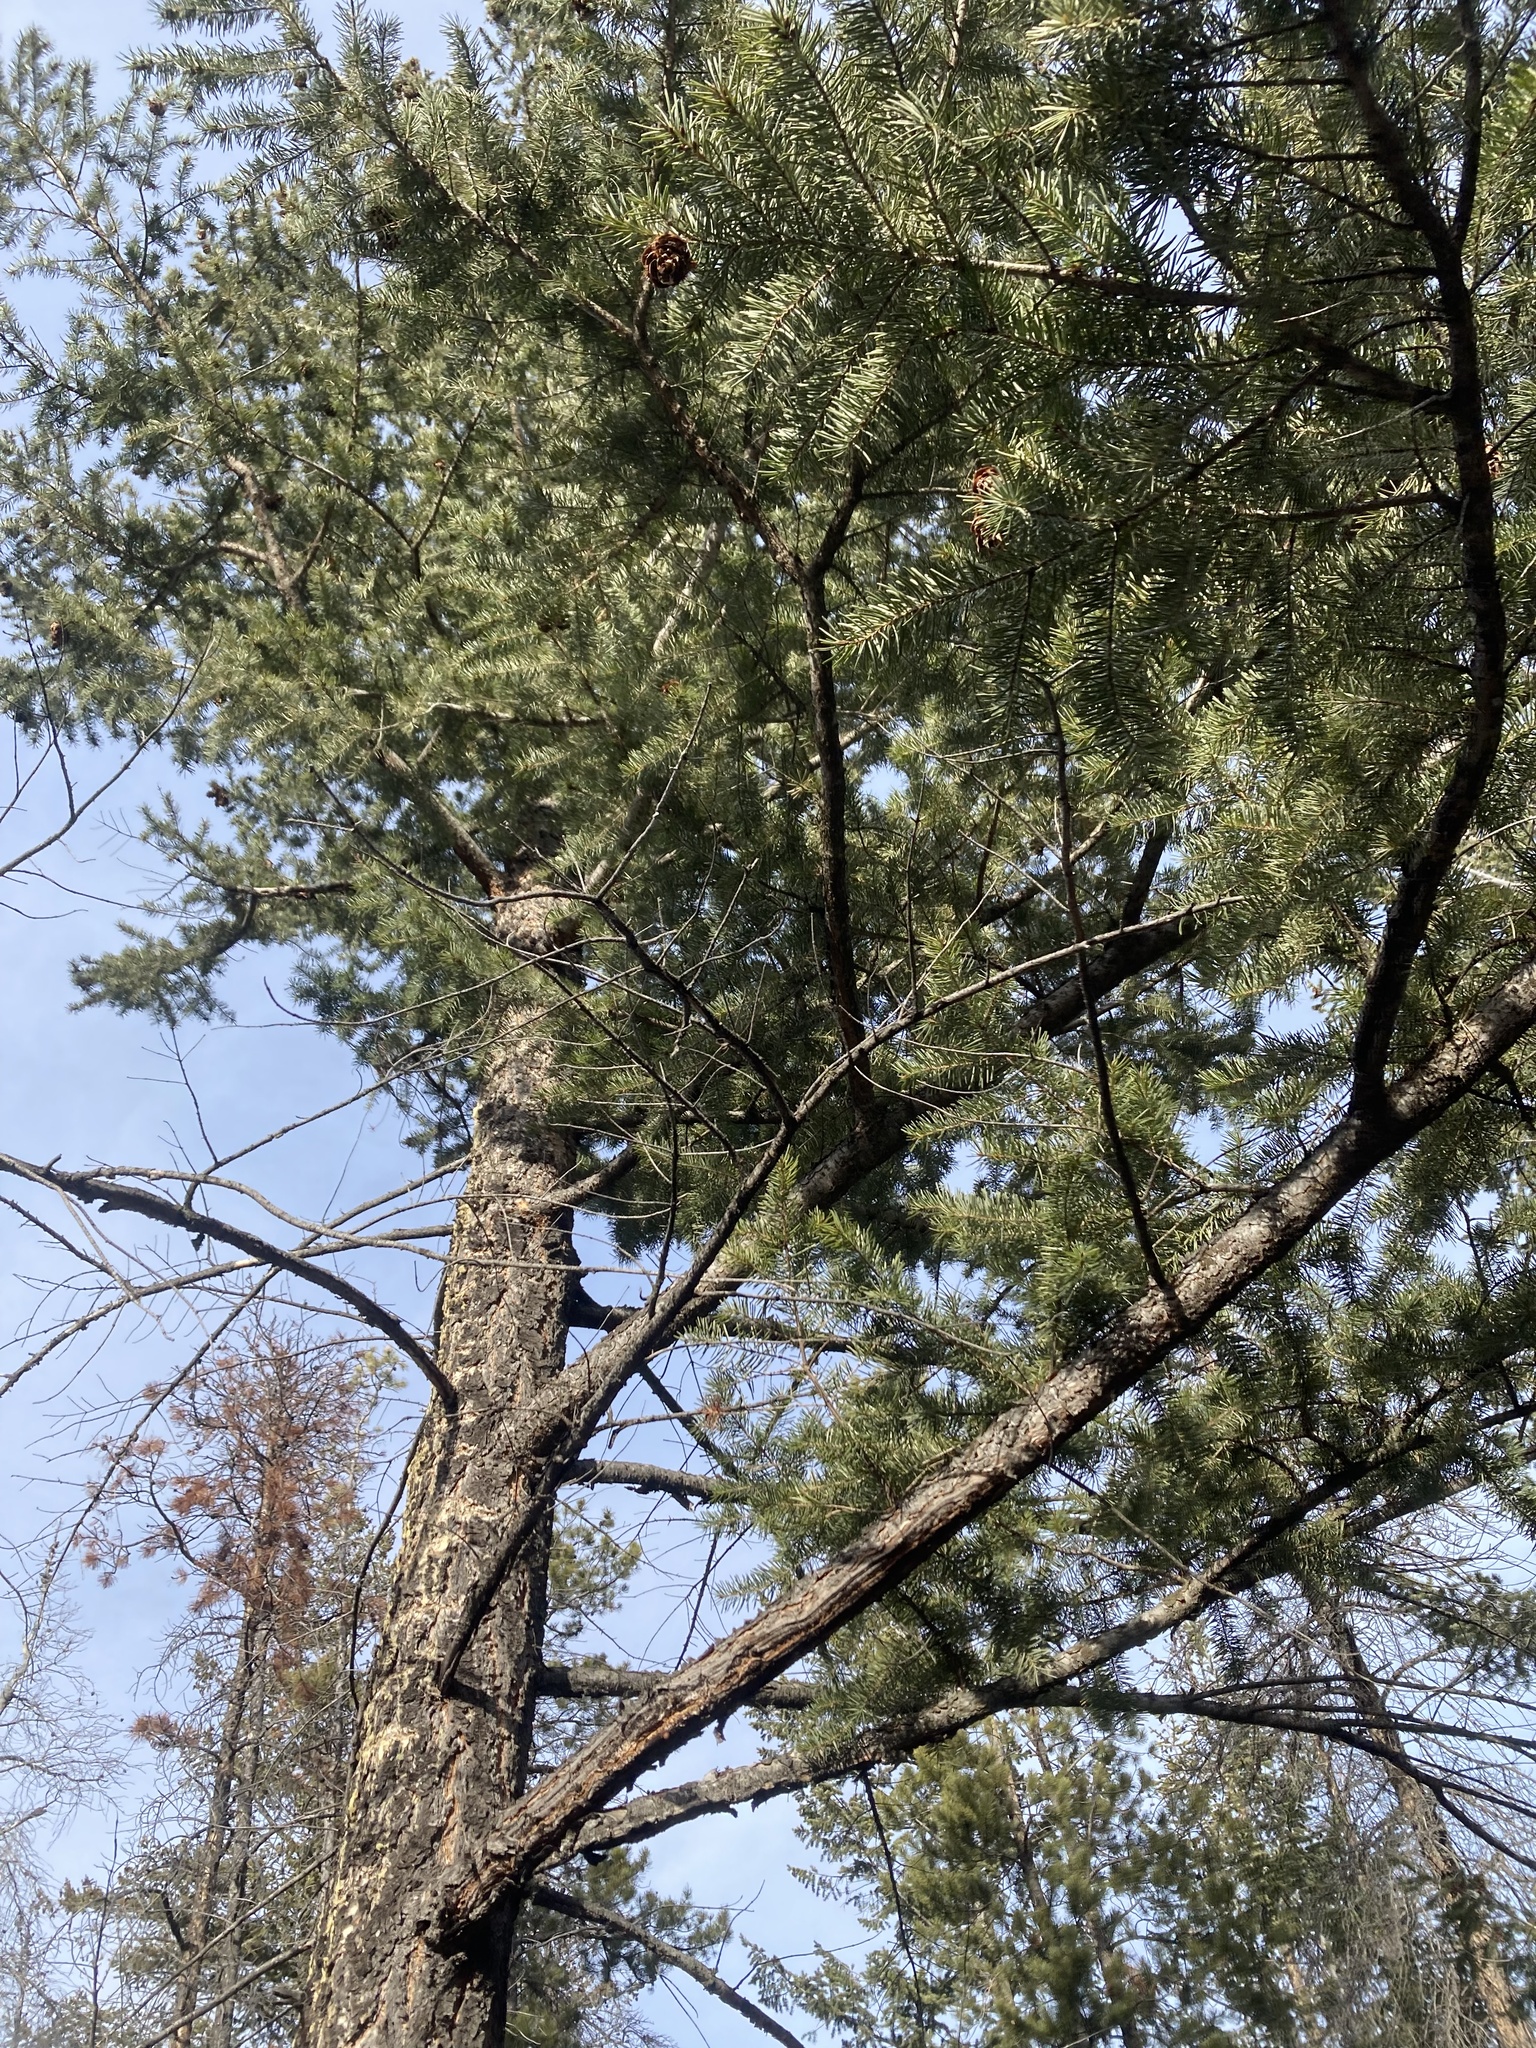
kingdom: Plantae
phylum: Tracheophyta
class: Pinopsida
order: Pinales
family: Pinaceae
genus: Pseudotsuga
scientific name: Pseudotsuga menziesii
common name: Douglas fir
